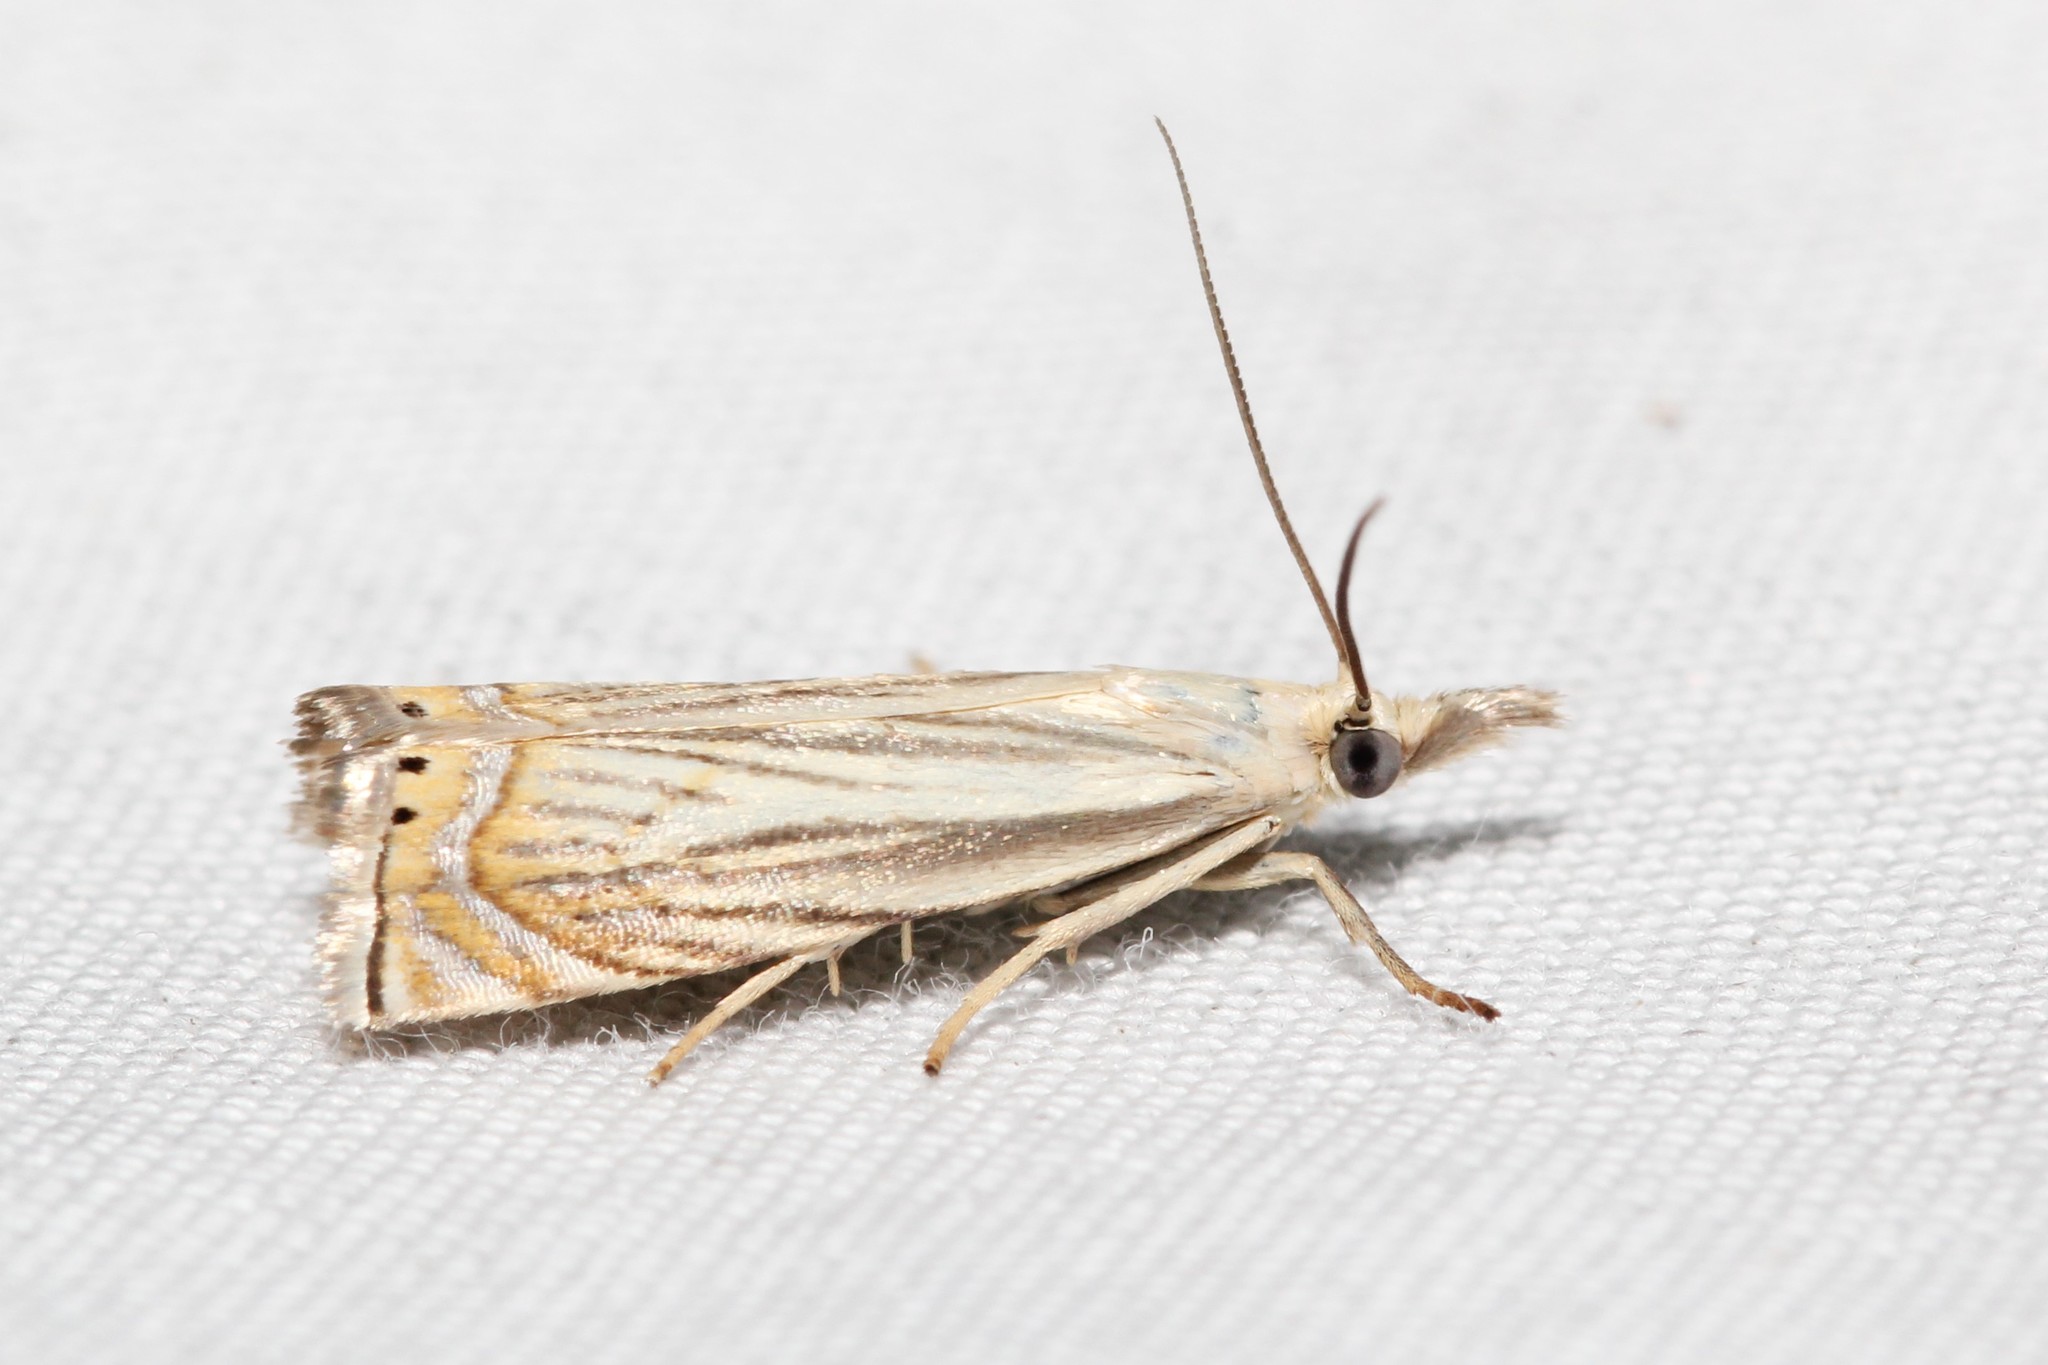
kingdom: Animalia
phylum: Arthropoda
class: Insecta
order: Lepidoptera
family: Crambidae
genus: Chrysoteuchia
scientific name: Chrysoteuchia topiarius
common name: Topiary grass-veneer
